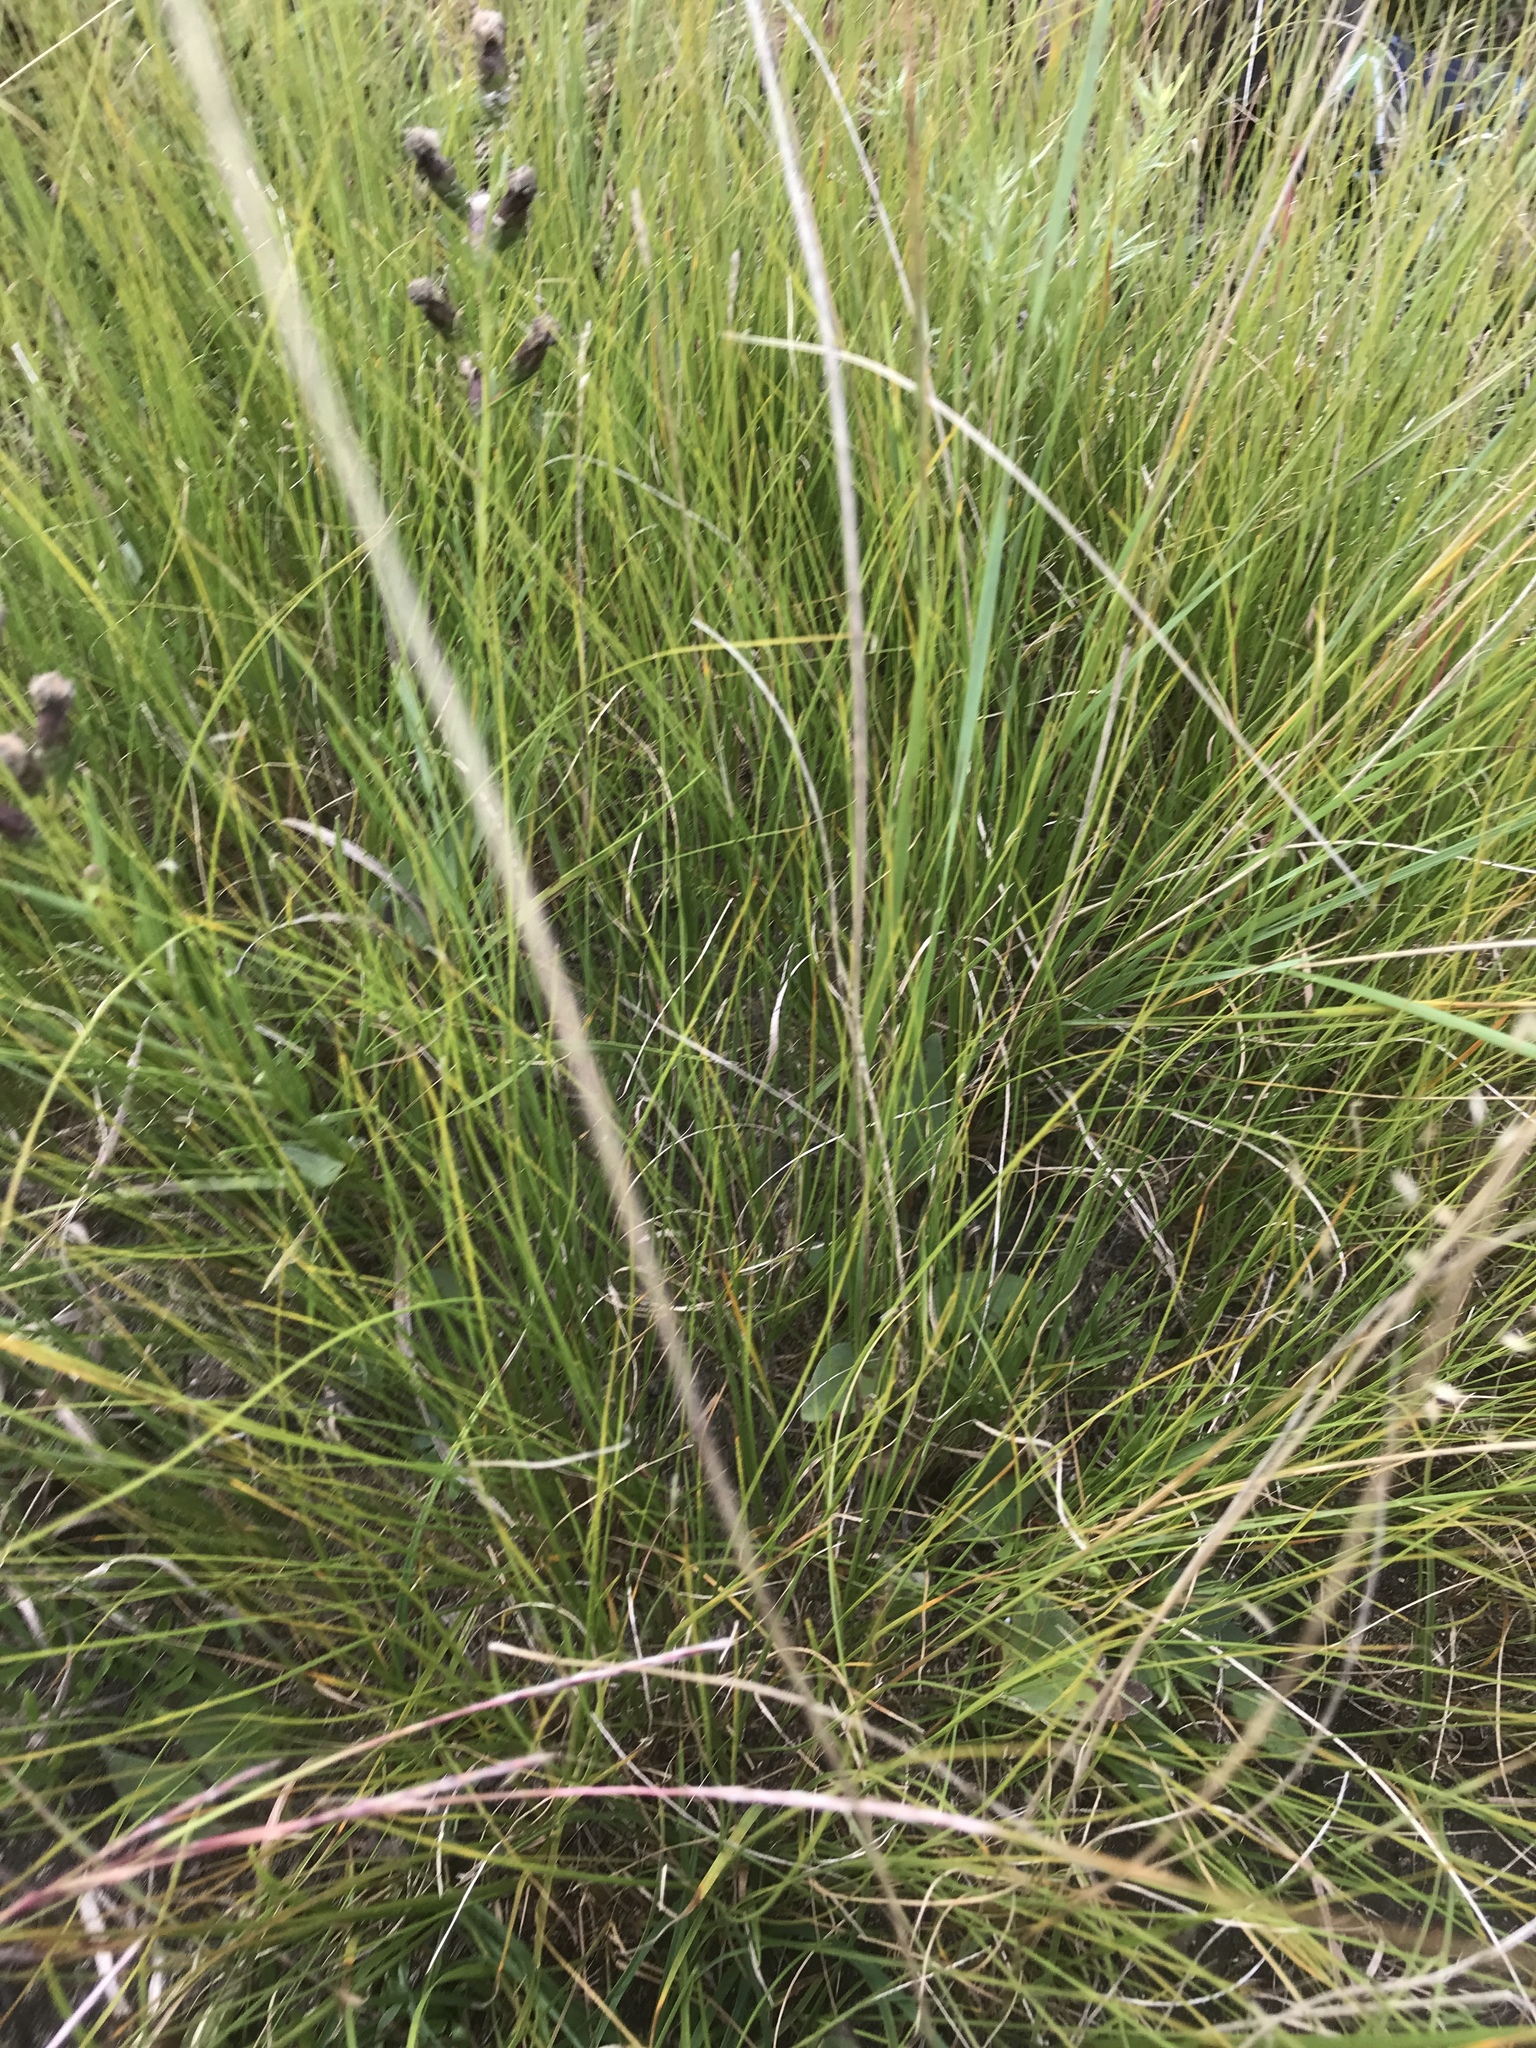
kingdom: Plantae
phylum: Tracheophyta
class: Liliopsida
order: Poales
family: Poaceae
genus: Sporobolus
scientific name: Sporobolus heterolepis
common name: Prairie dropseed
